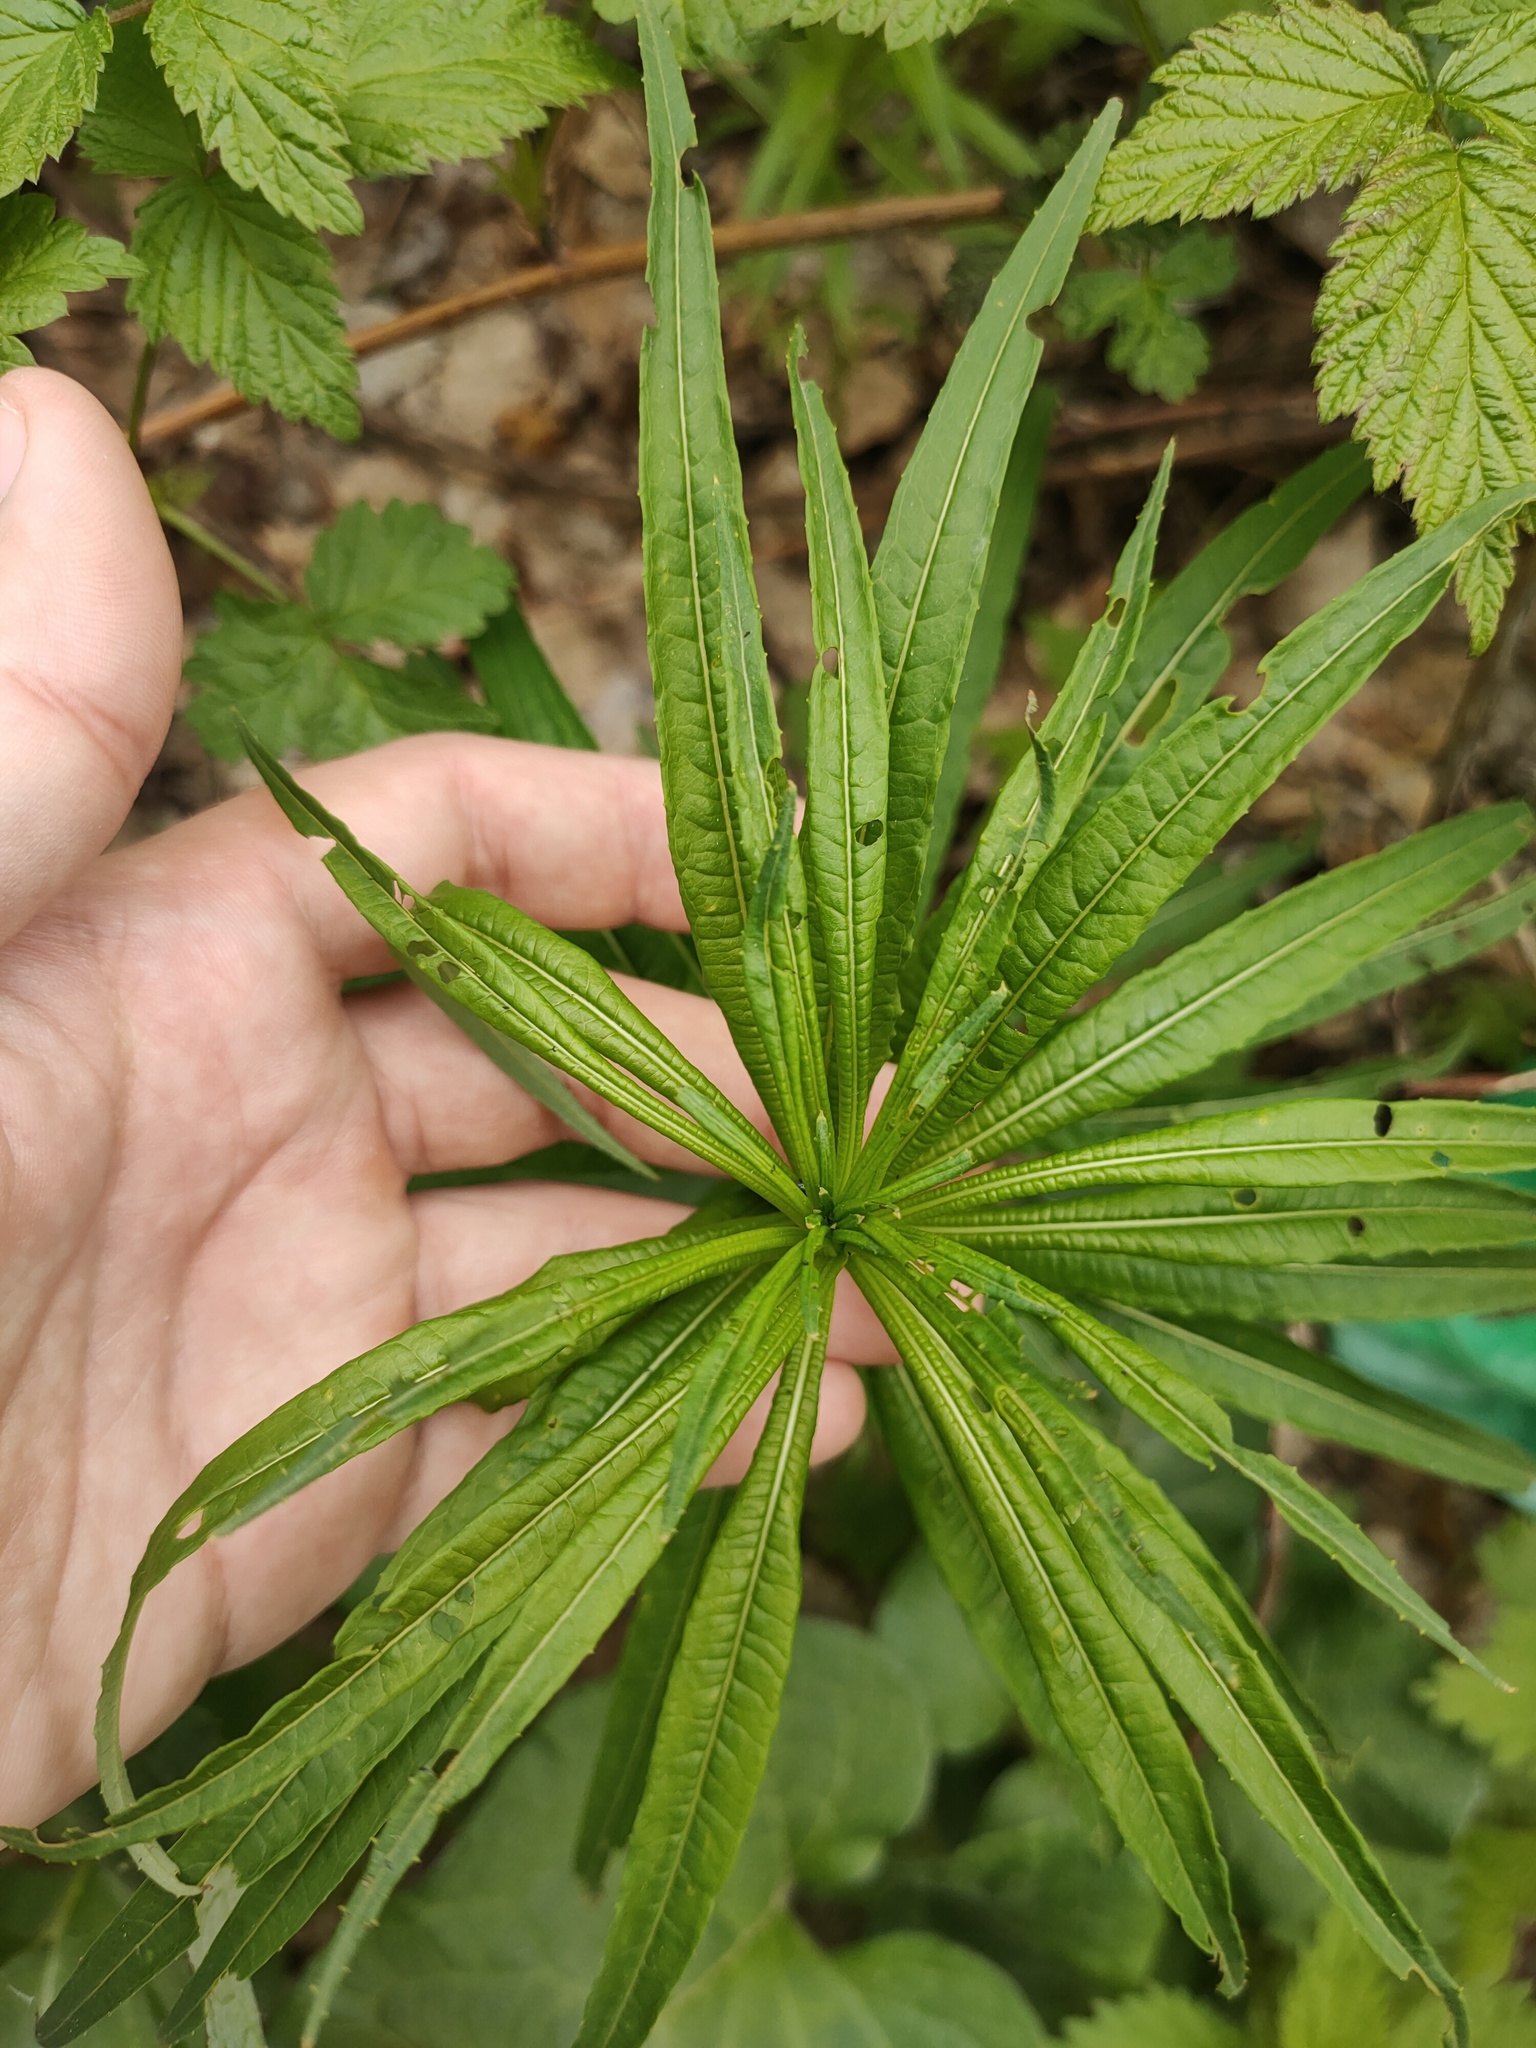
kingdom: Plantae
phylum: Tracheophyta
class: Magnoliopsida
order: Myrtales
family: Onagraceae
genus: Chamaenerion
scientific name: Chamaenerion angustifolium
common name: Fireweed
